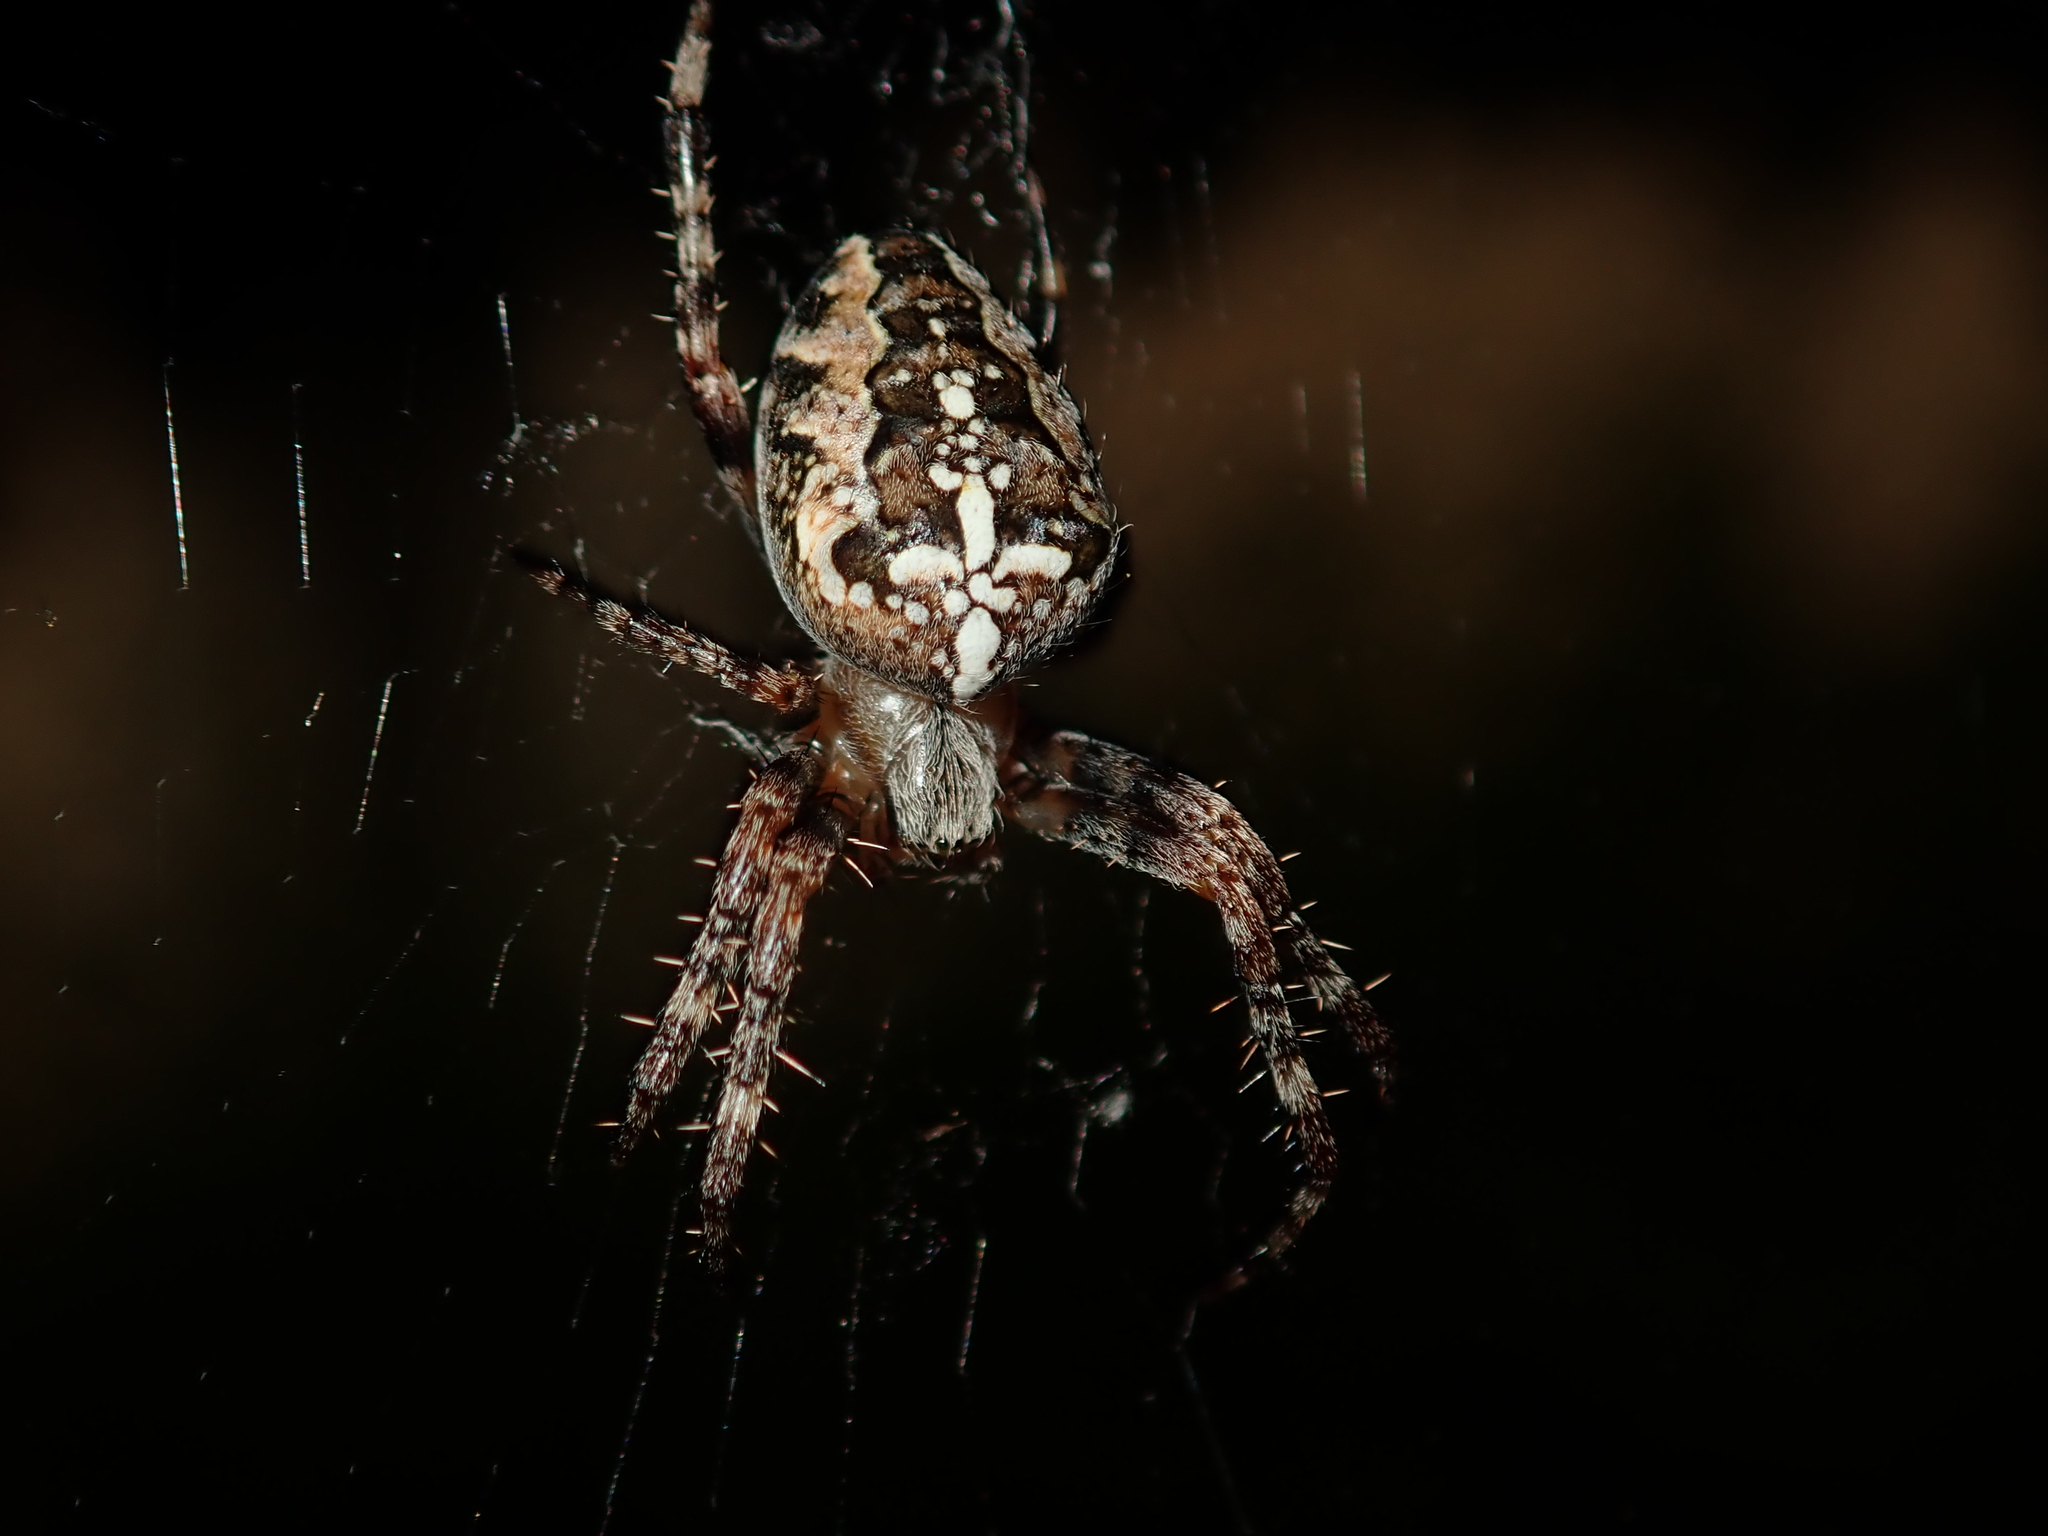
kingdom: Animalia
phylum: Arthropoda
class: Arachnida
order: Araneae
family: Araneidae
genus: Araneus
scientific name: Araneus diadematus
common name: Cross orbweaver
